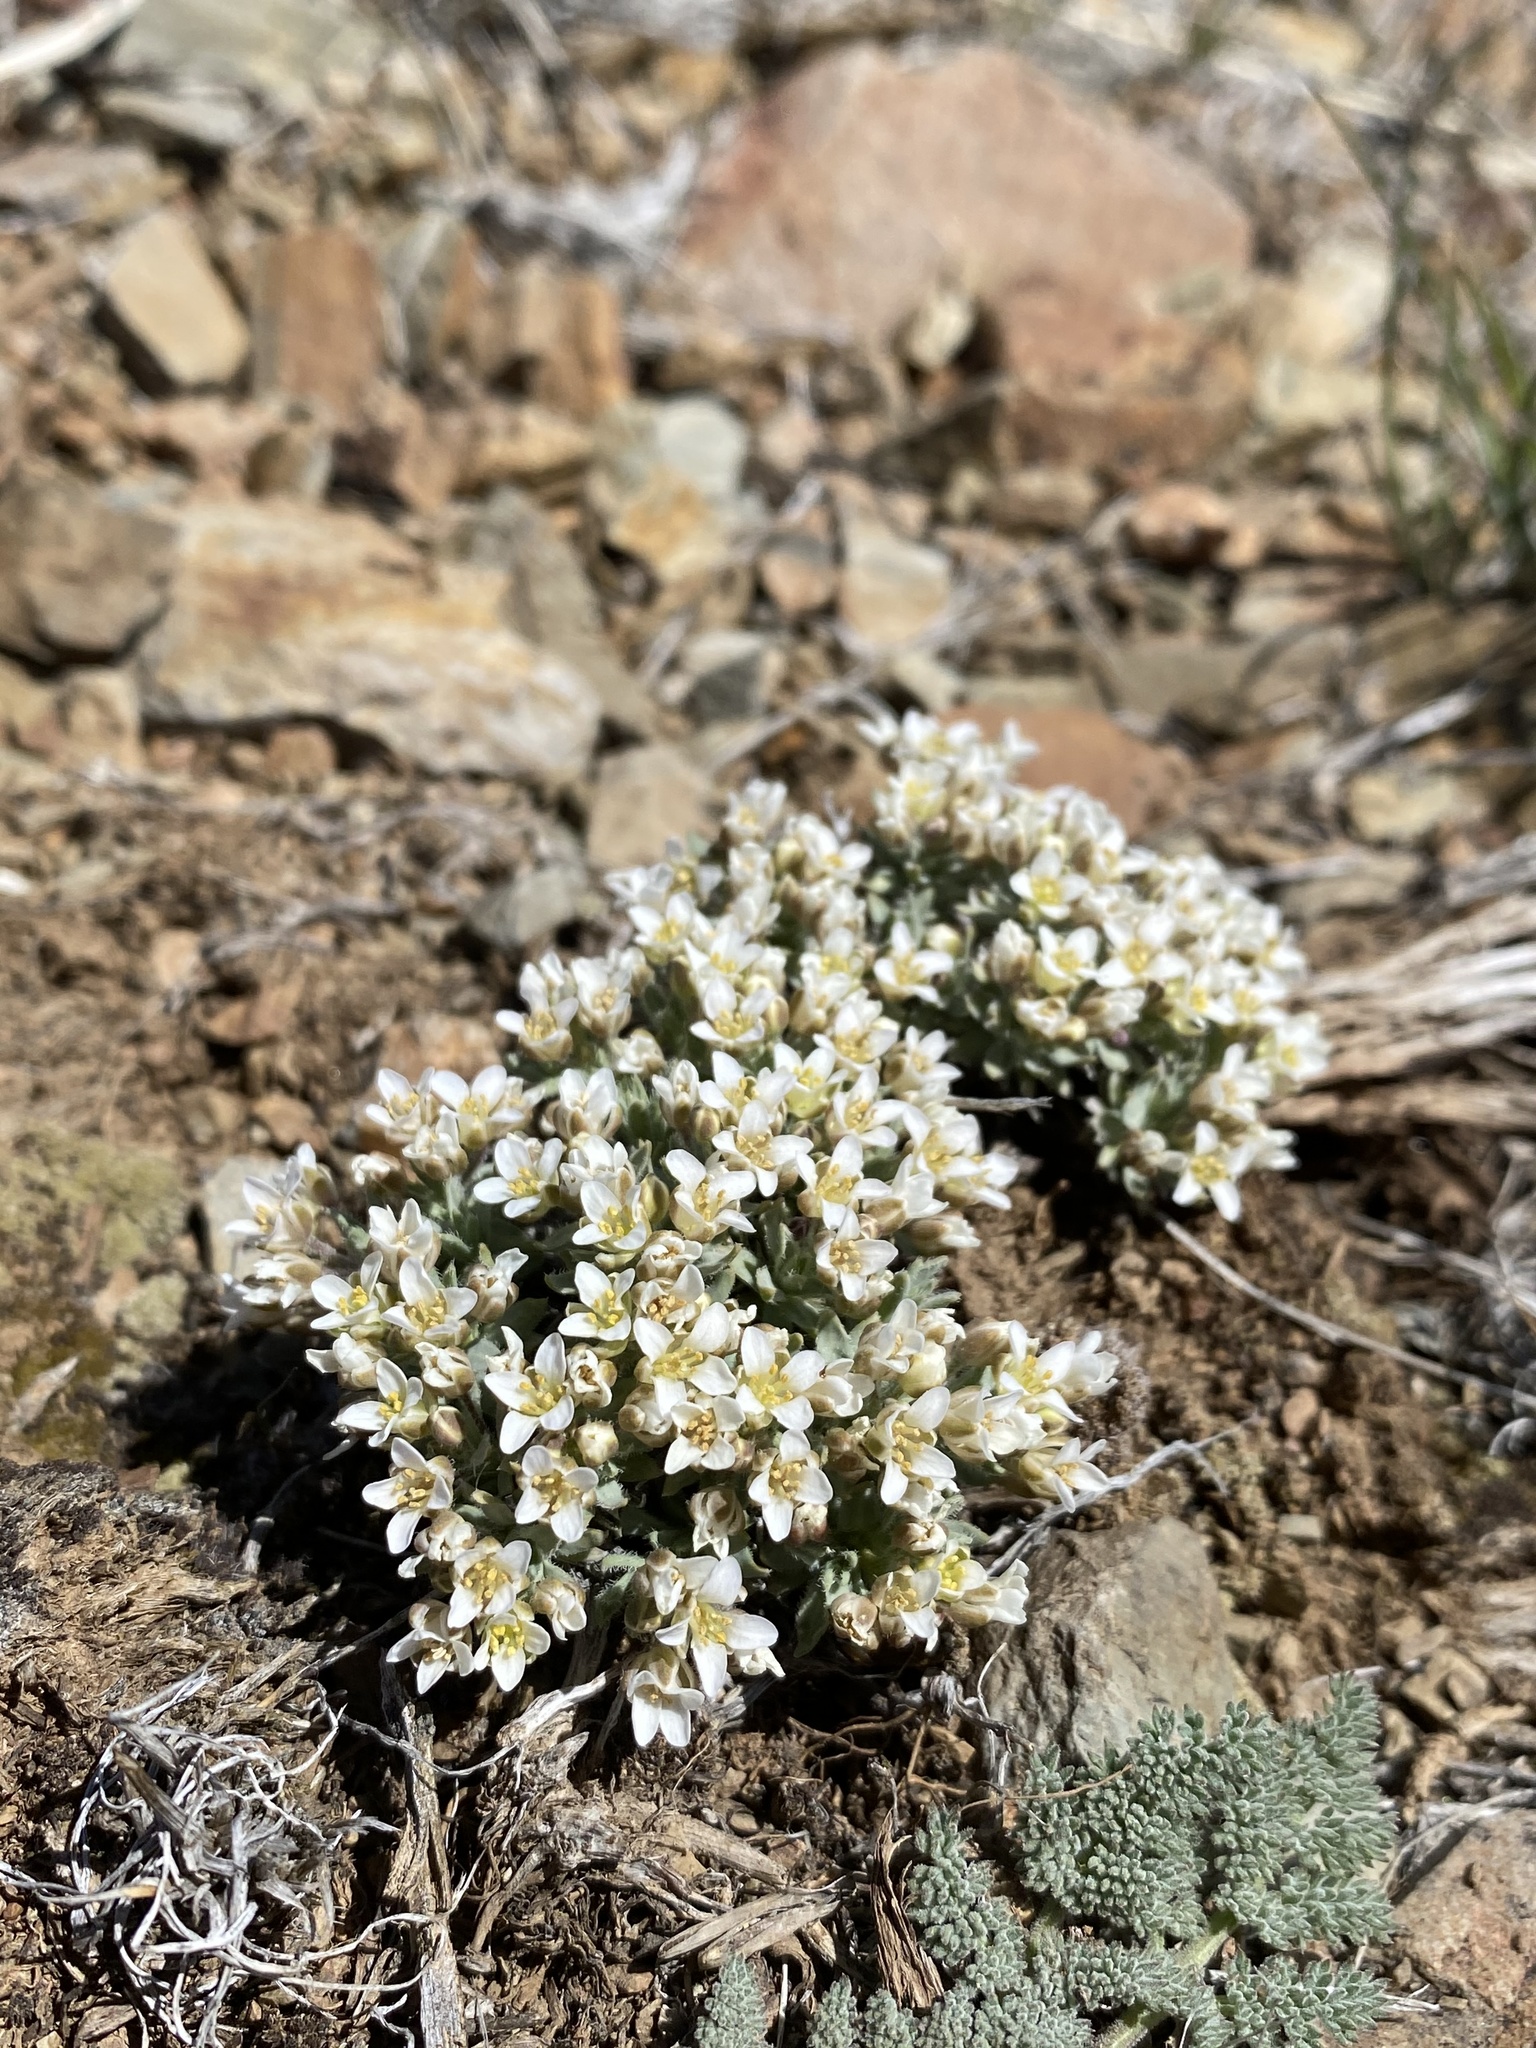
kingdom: Plantae
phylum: Tracheophyta
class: Magnoliopsida
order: Brassicales
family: Brassicaceae
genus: Cusickiella
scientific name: Cusickiella douglasii
